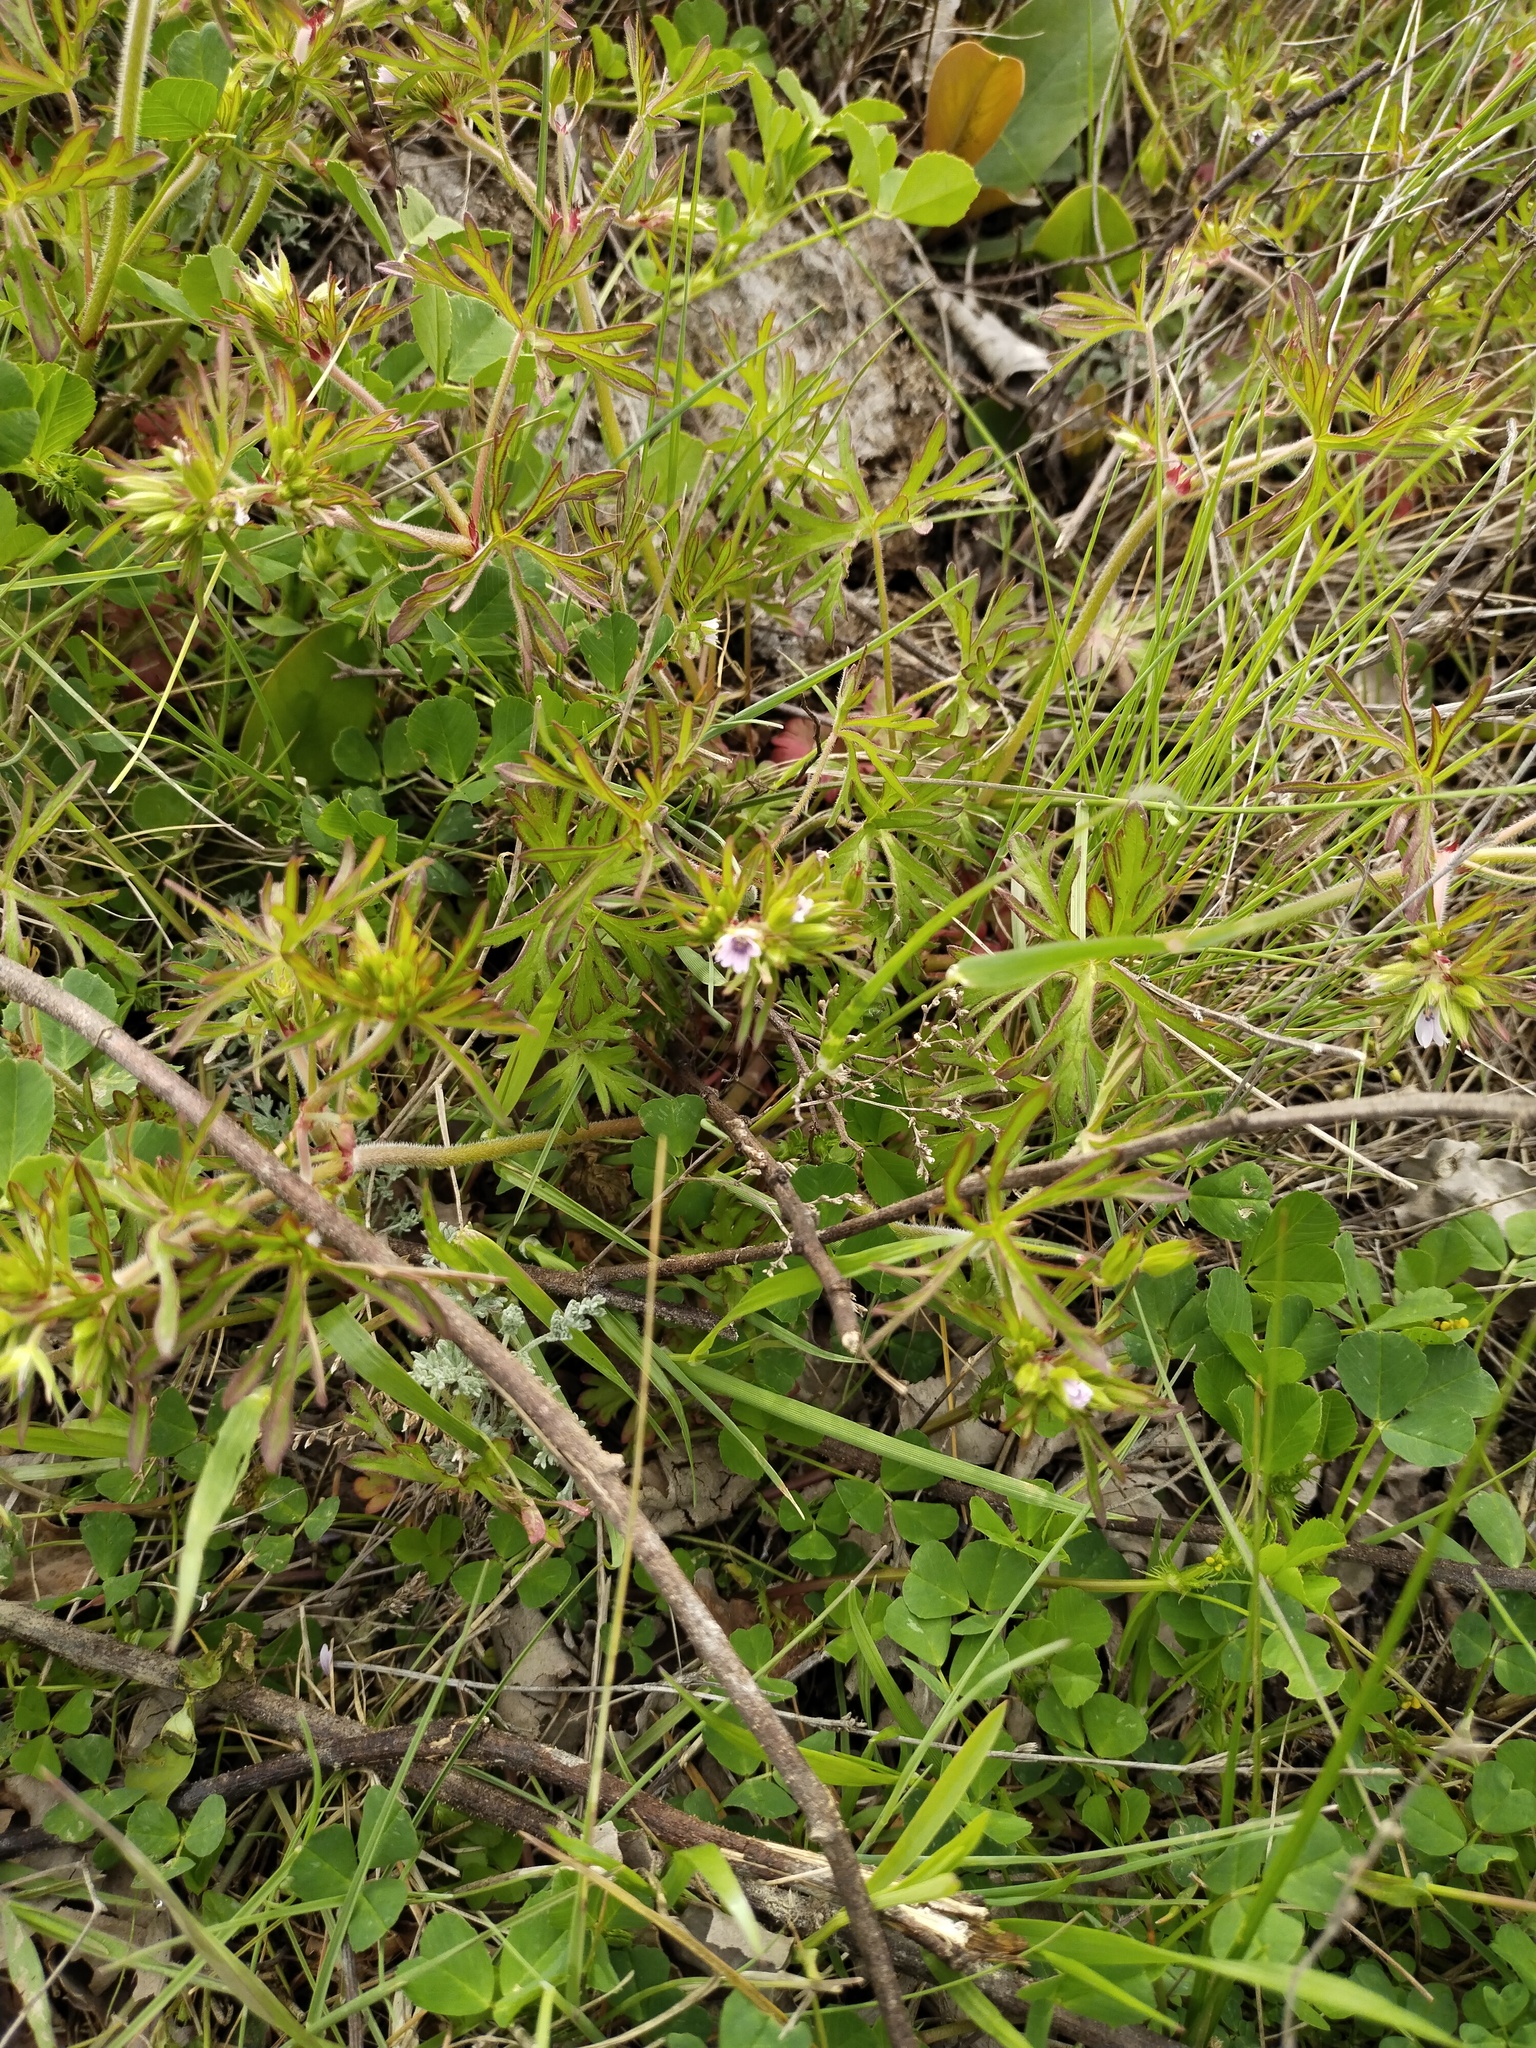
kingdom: Plantae
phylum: Tracheophyta
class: Magnoliopsida
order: Geraniales
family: Geraniaceae
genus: Geranium
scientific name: Geranium dissectum
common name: Cut-leaved crane's-bill
